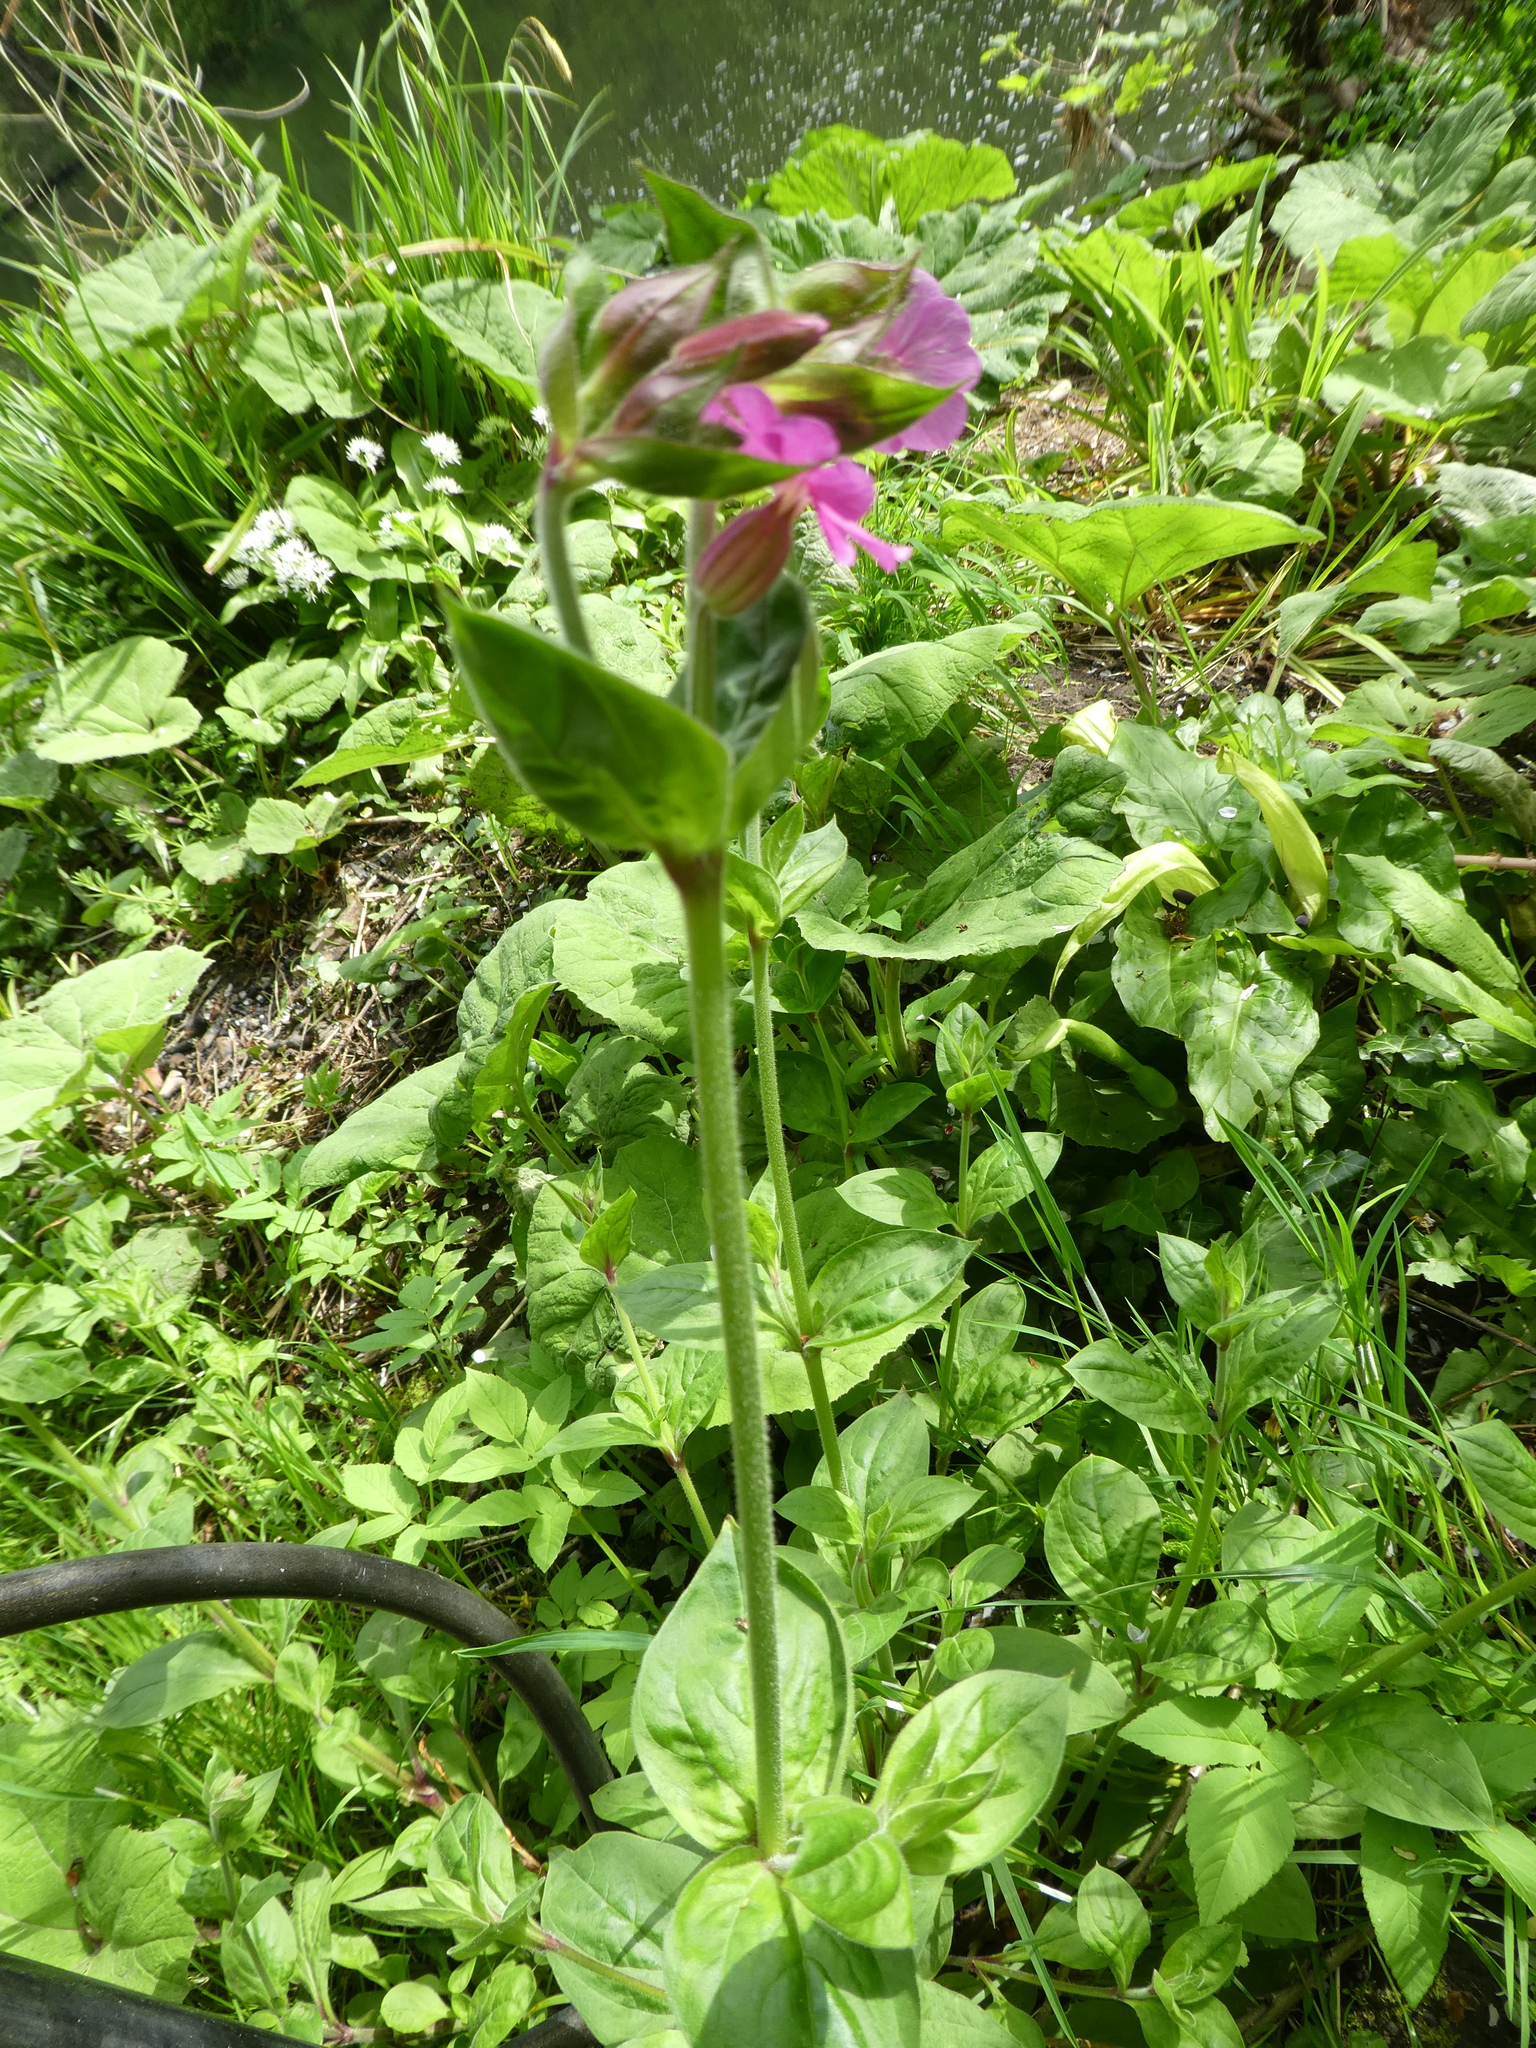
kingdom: Plantae
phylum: Tracheophyta
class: Magnoliopsida
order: Caryophyllales
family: Caryophyllaceae
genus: Silene
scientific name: Silene dioica
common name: Red campion
